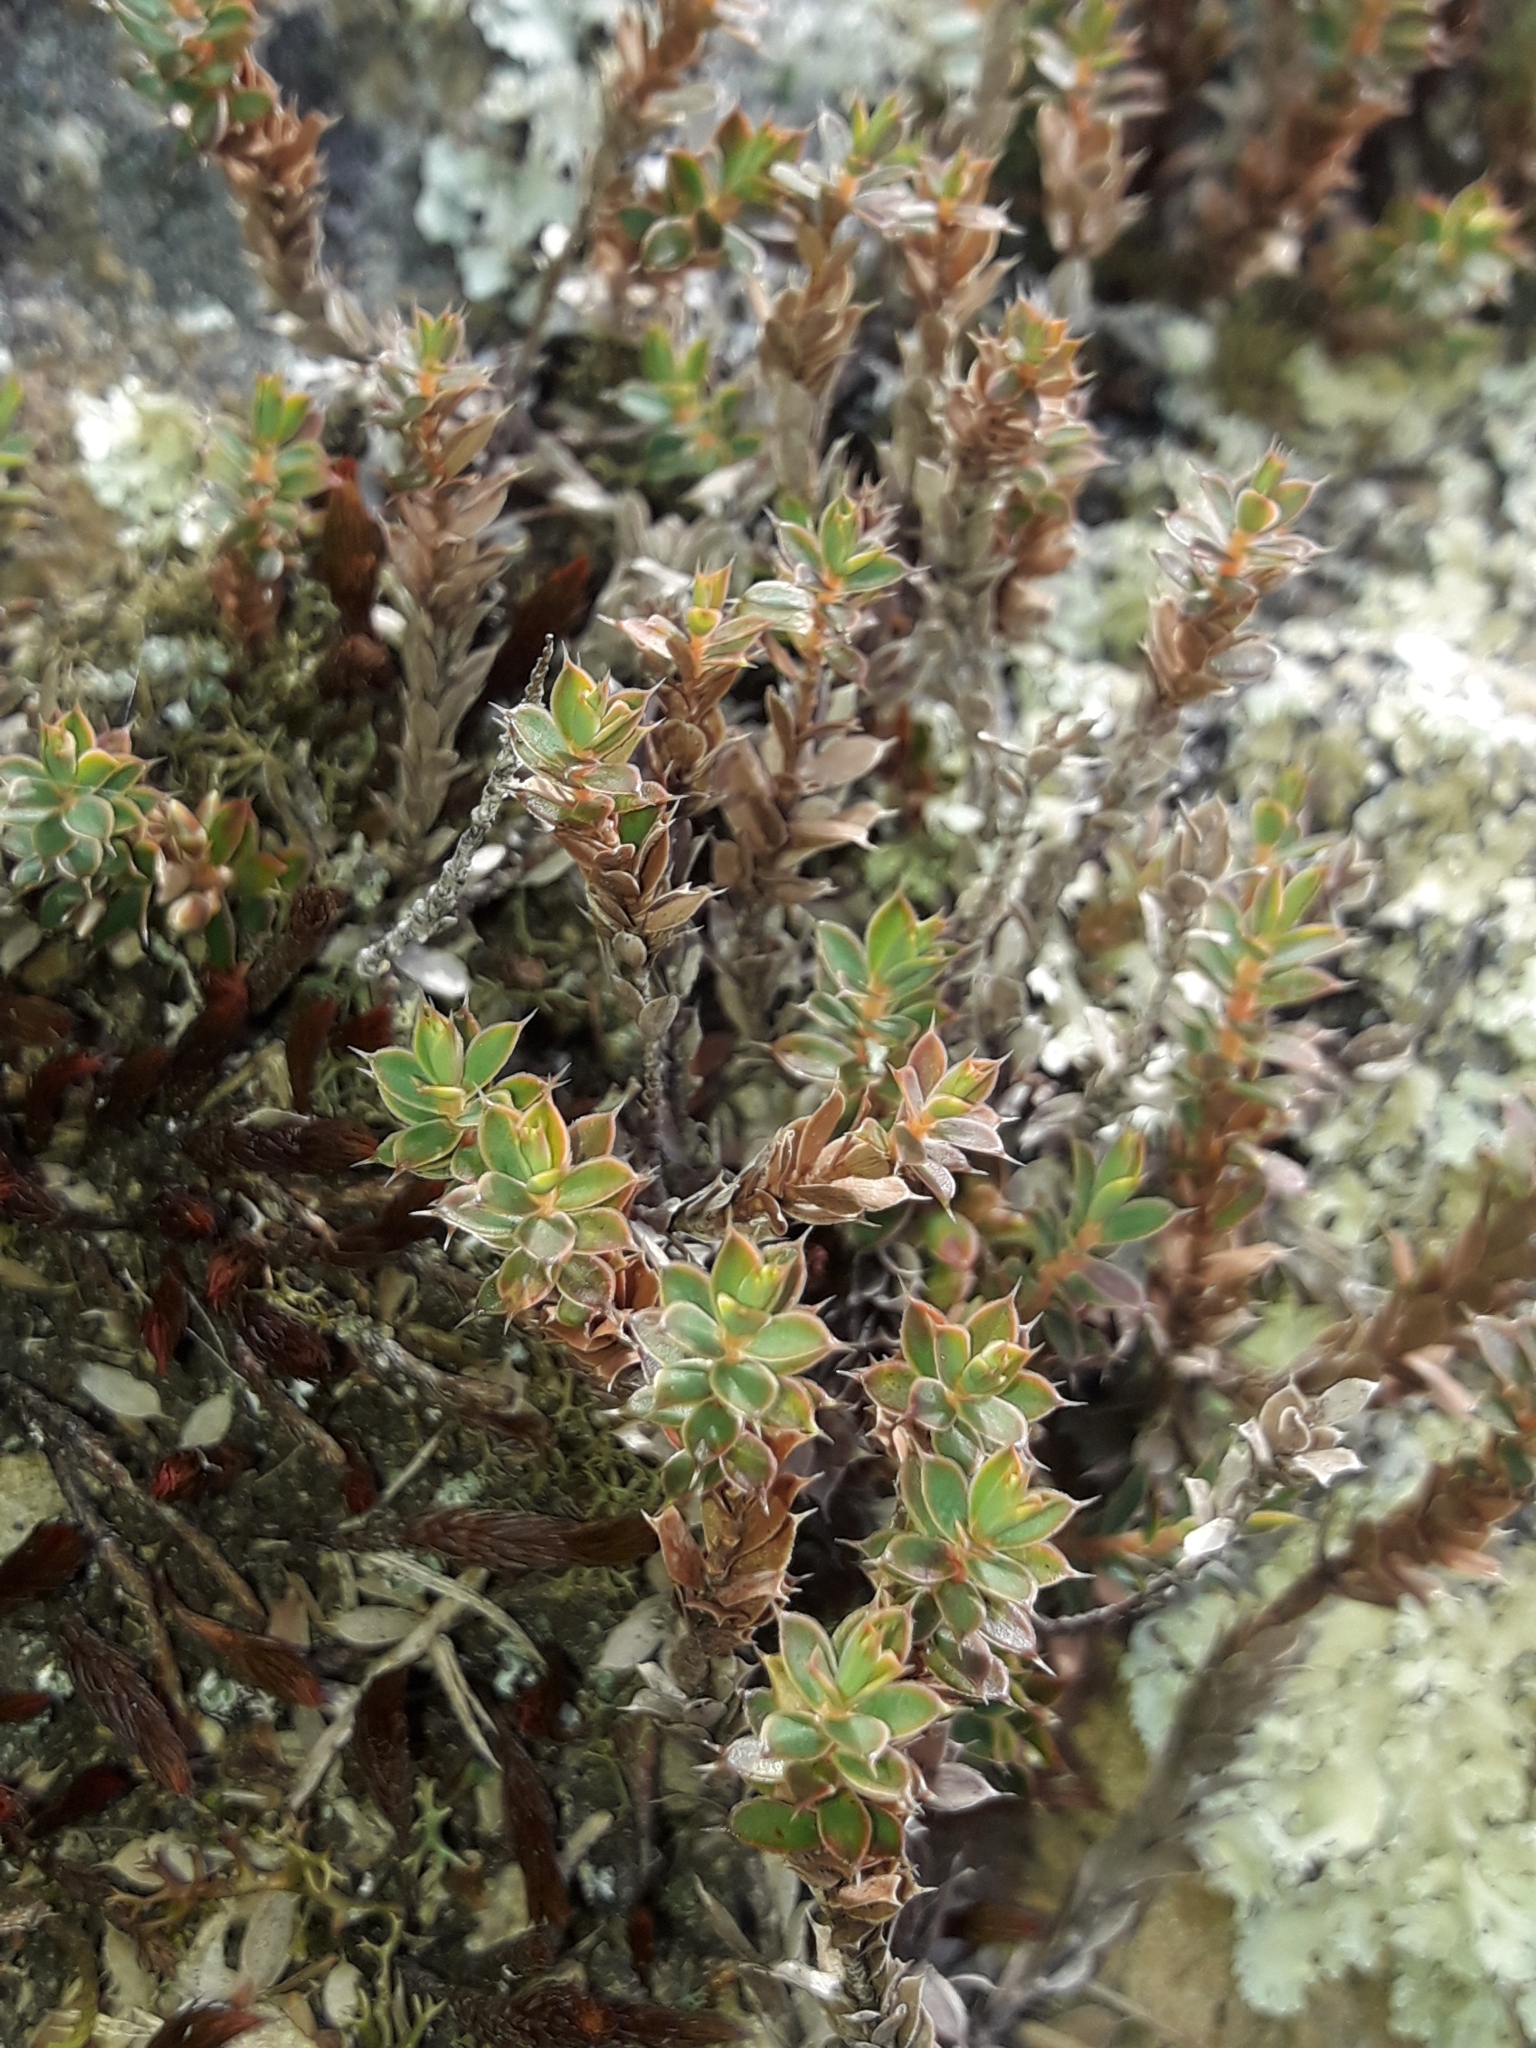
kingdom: Plantae
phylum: Tracheophyta
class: Magnoliopsida
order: Ericales
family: Ericaceae
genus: Styphelia
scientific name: Styphelia nesophila
